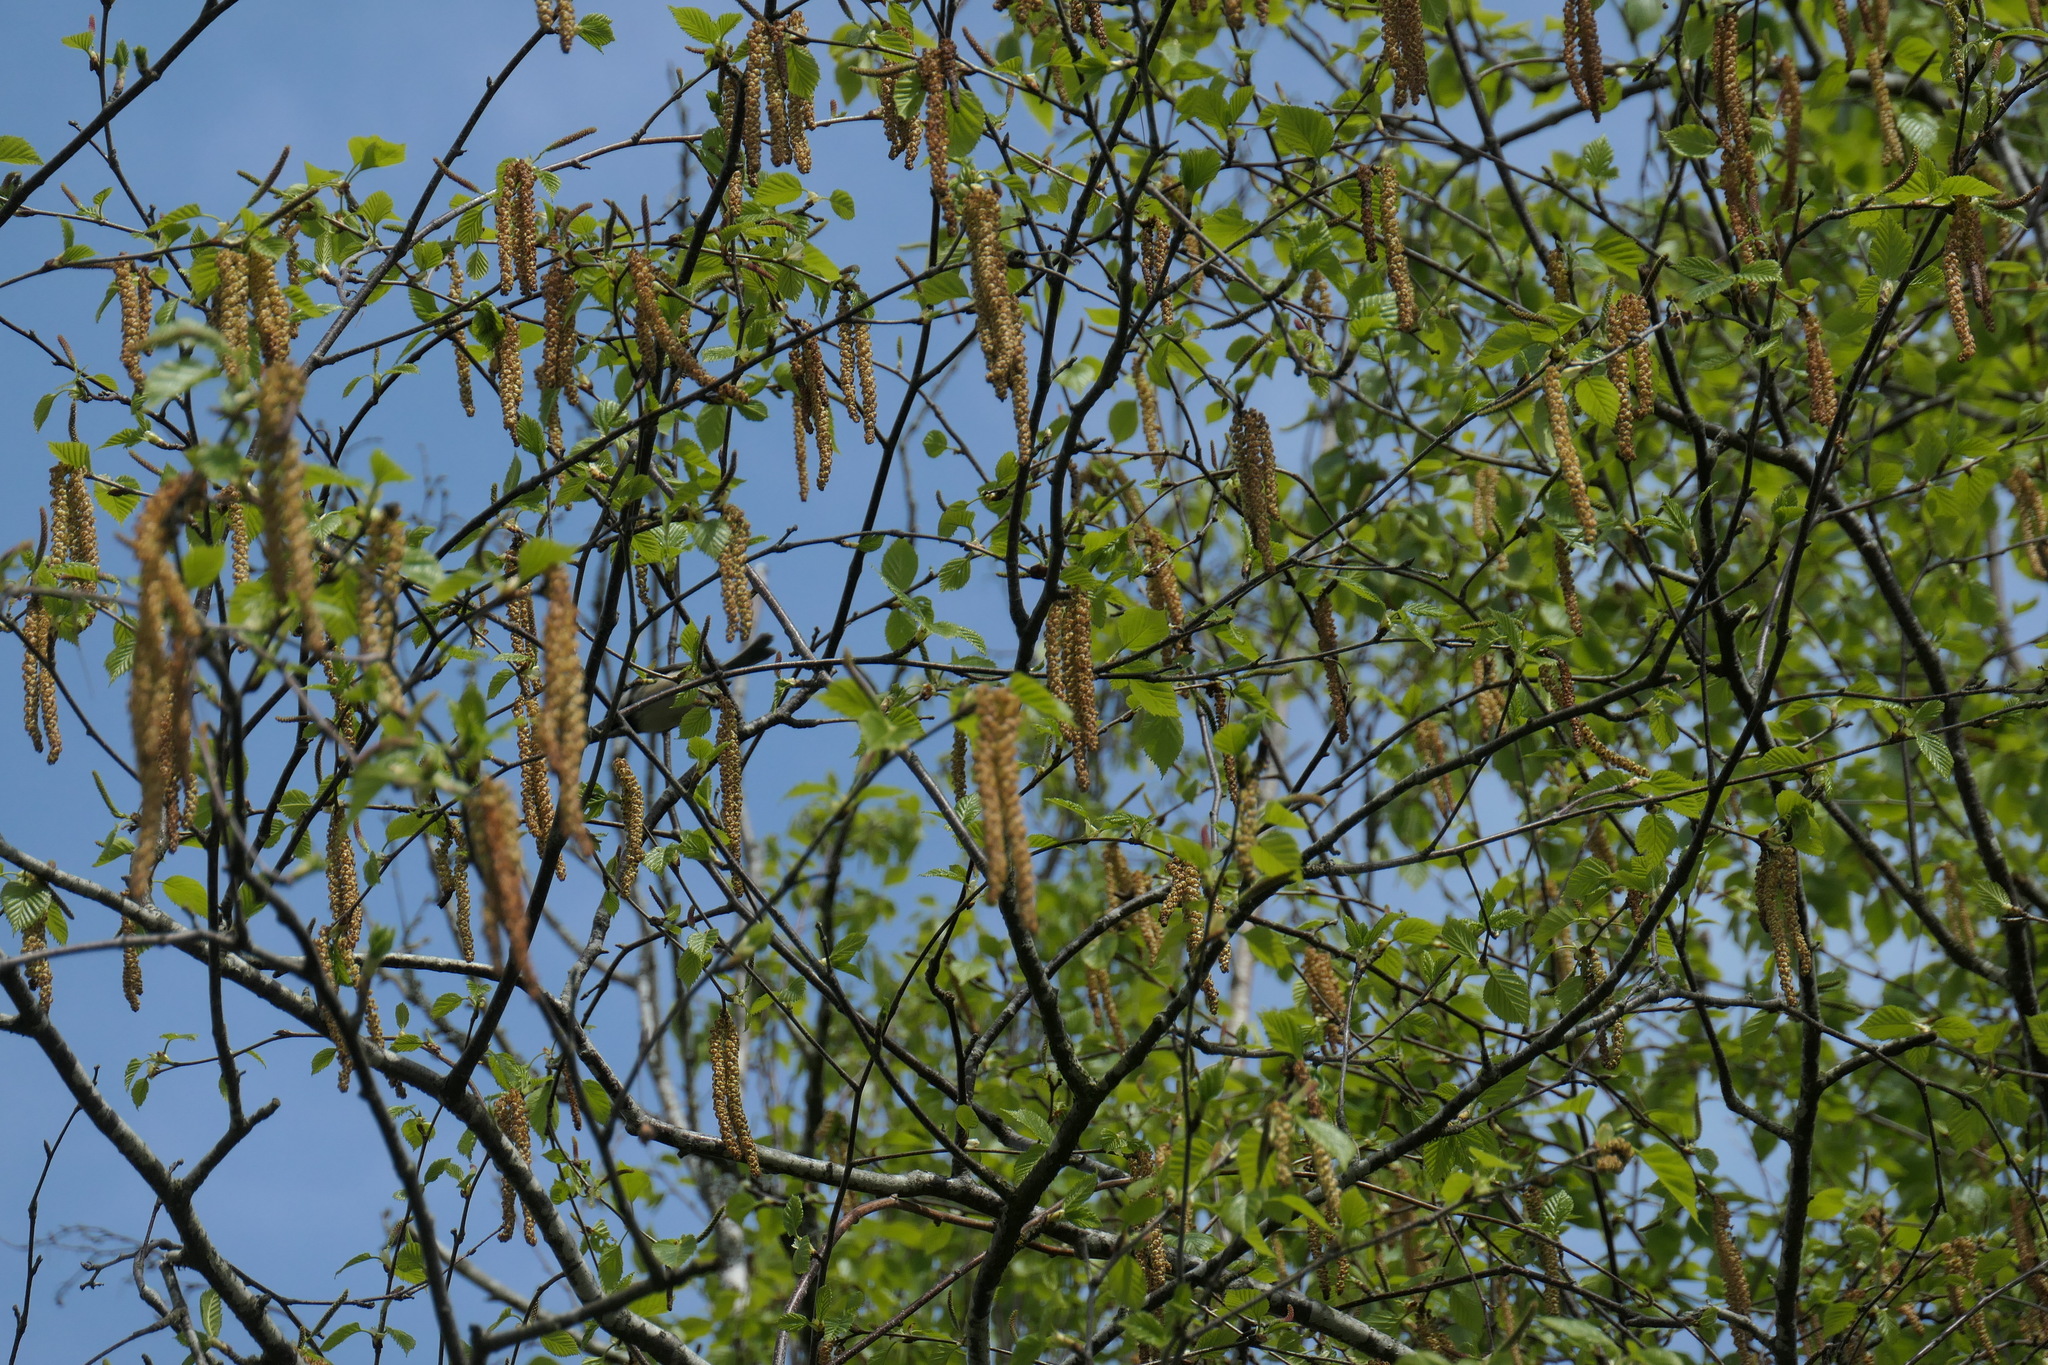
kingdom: Animalia
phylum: Chordata
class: Aves
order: Passeriformes
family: Paridae
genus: Poecile
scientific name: Poecile atricapillus
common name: Black-capped chickadee
